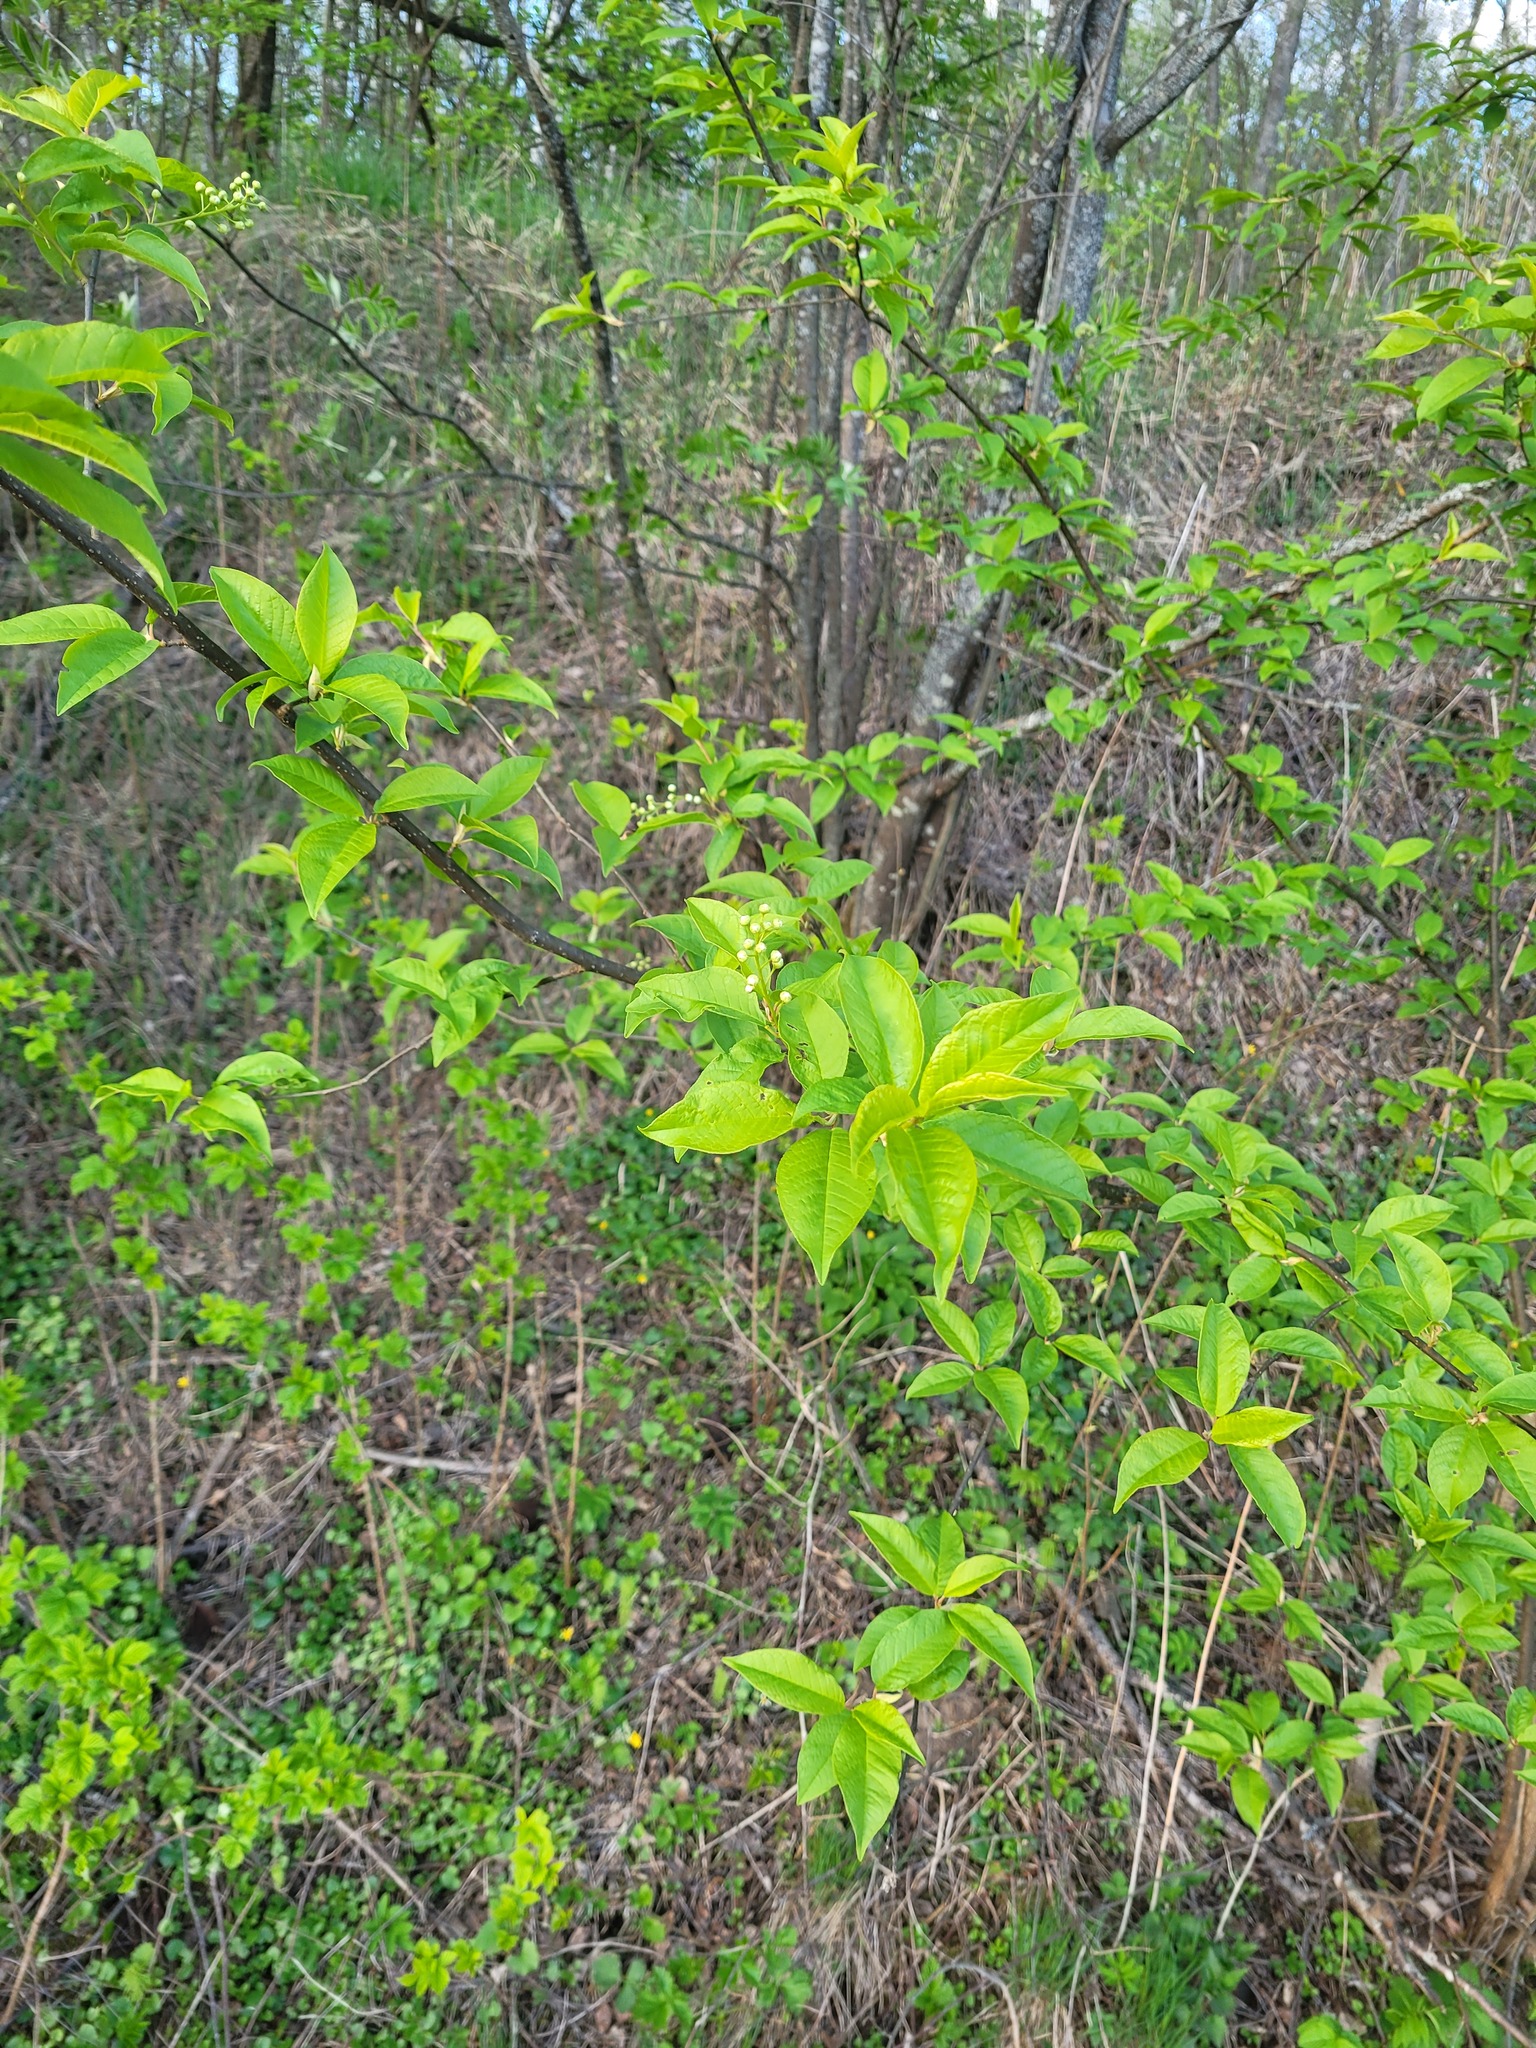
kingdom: Plantae
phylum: Tracheophyta
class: Magnoliopsida
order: Rosales
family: Rosaceae
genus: Prunus
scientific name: Prunus padus
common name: Bird cherry
